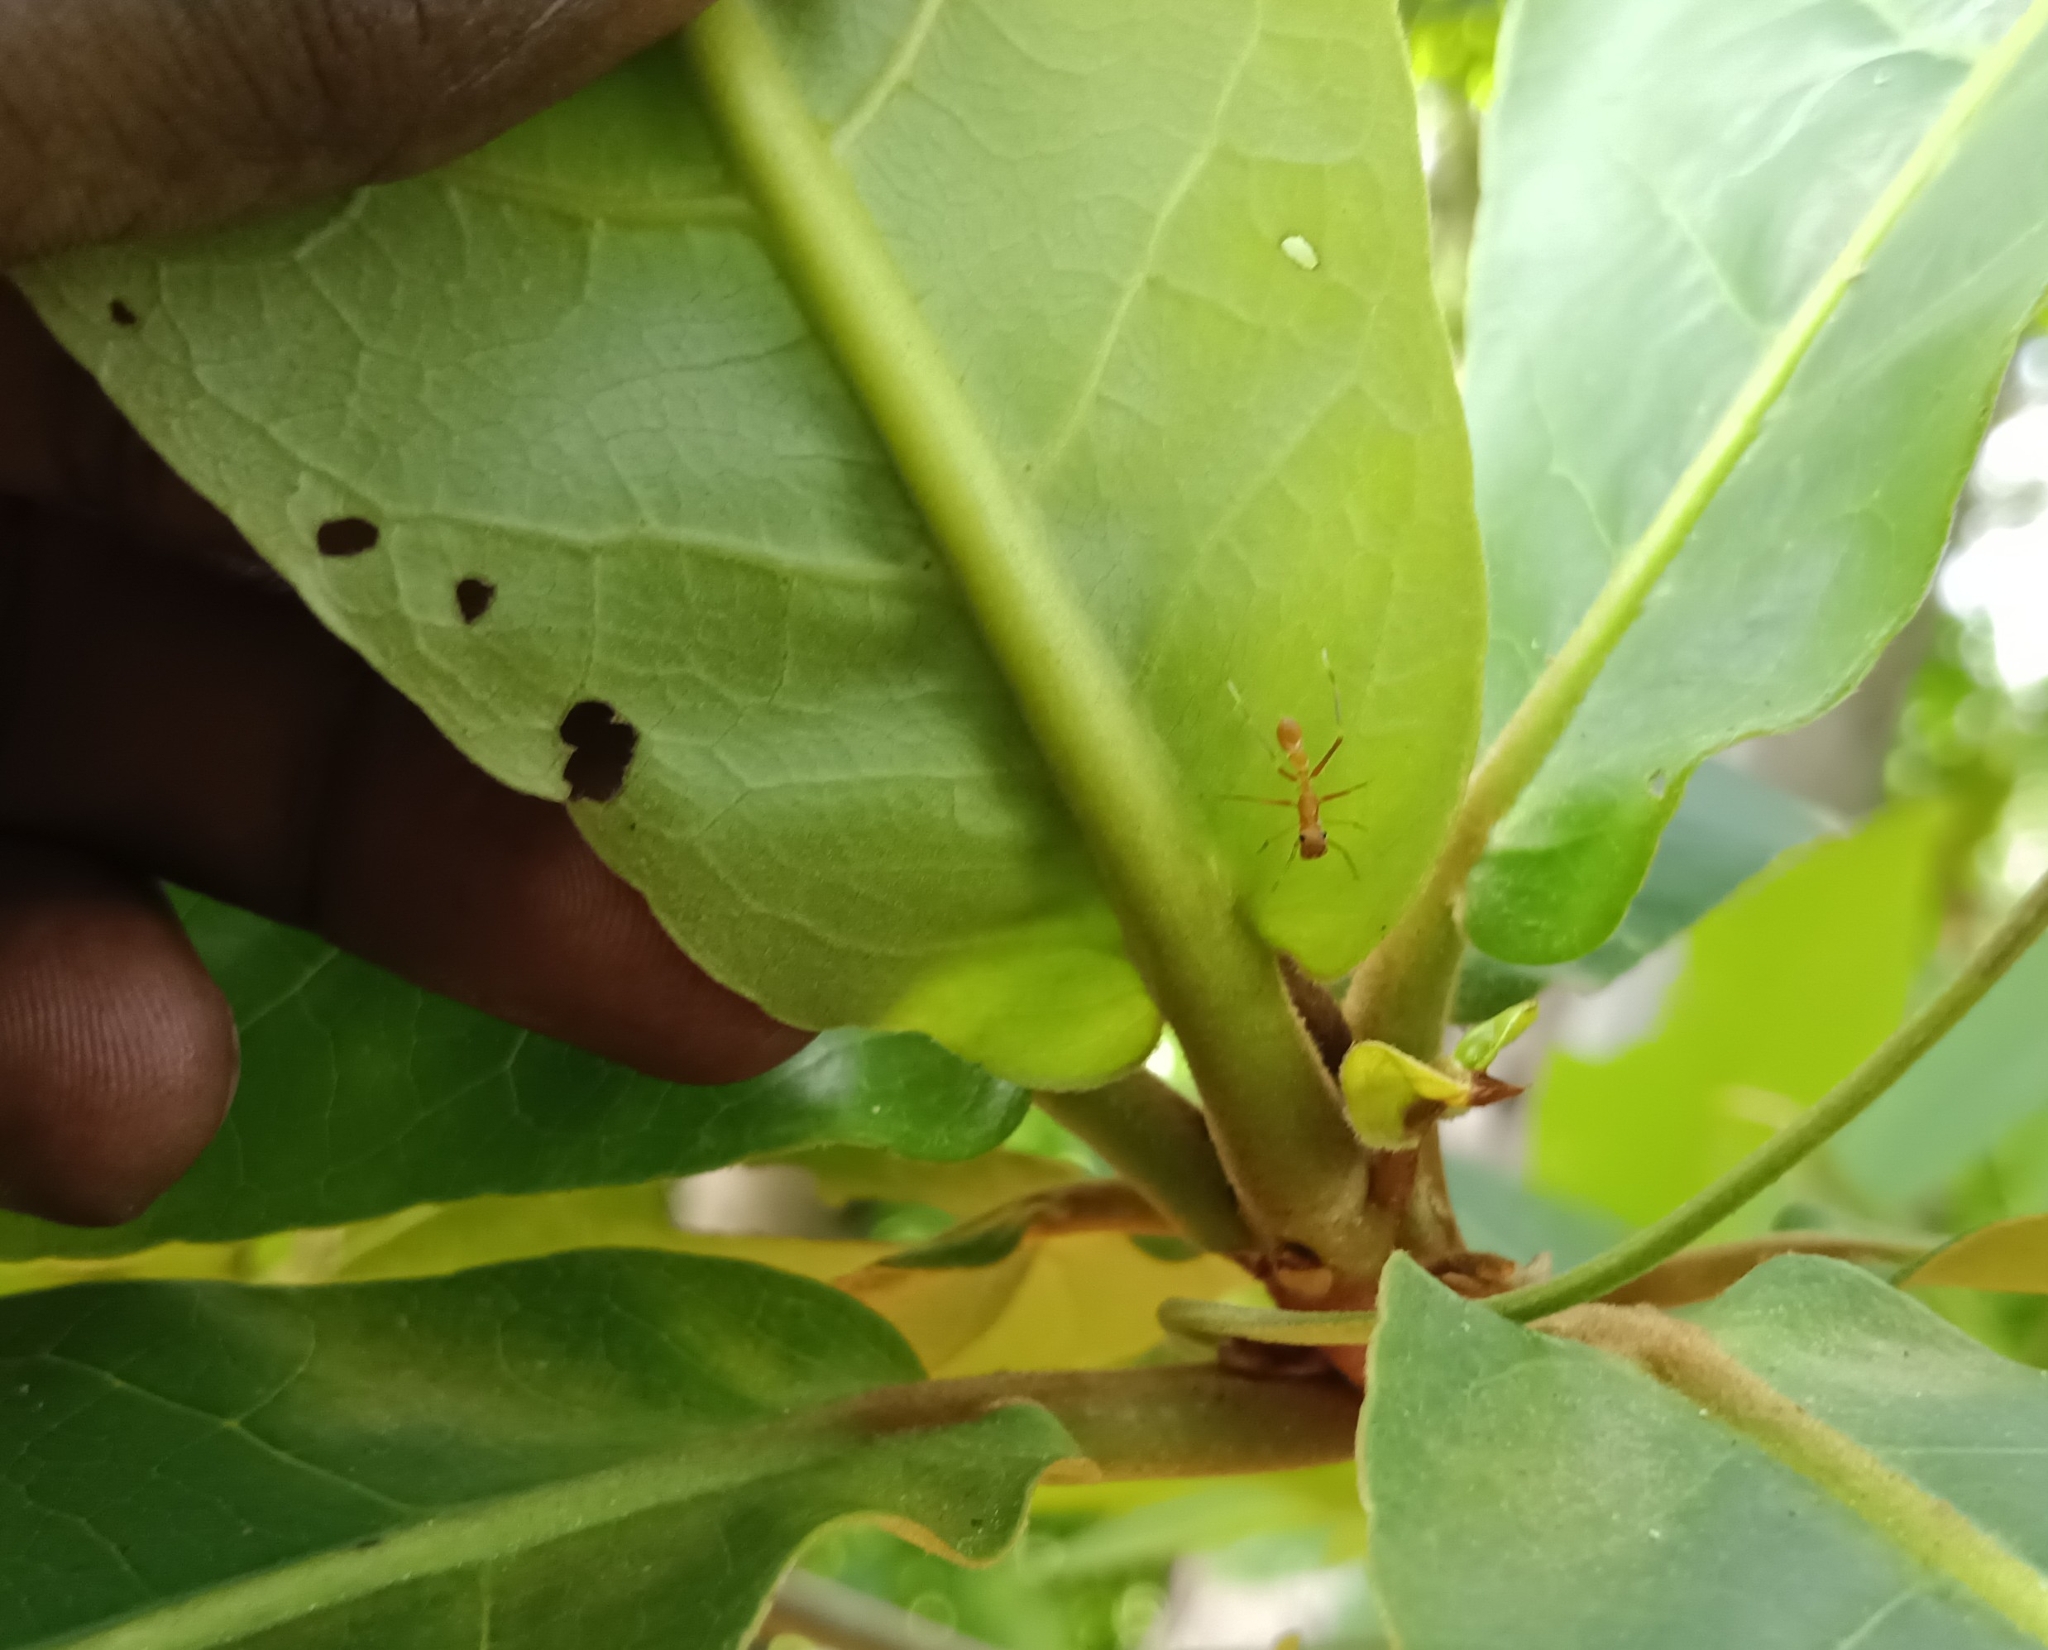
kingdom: Animalia
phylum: Arthropoda
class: Arachnida
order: Araneae
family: Salticidae
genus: Myrmaplata
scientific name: Myrmaplata plataleoides
